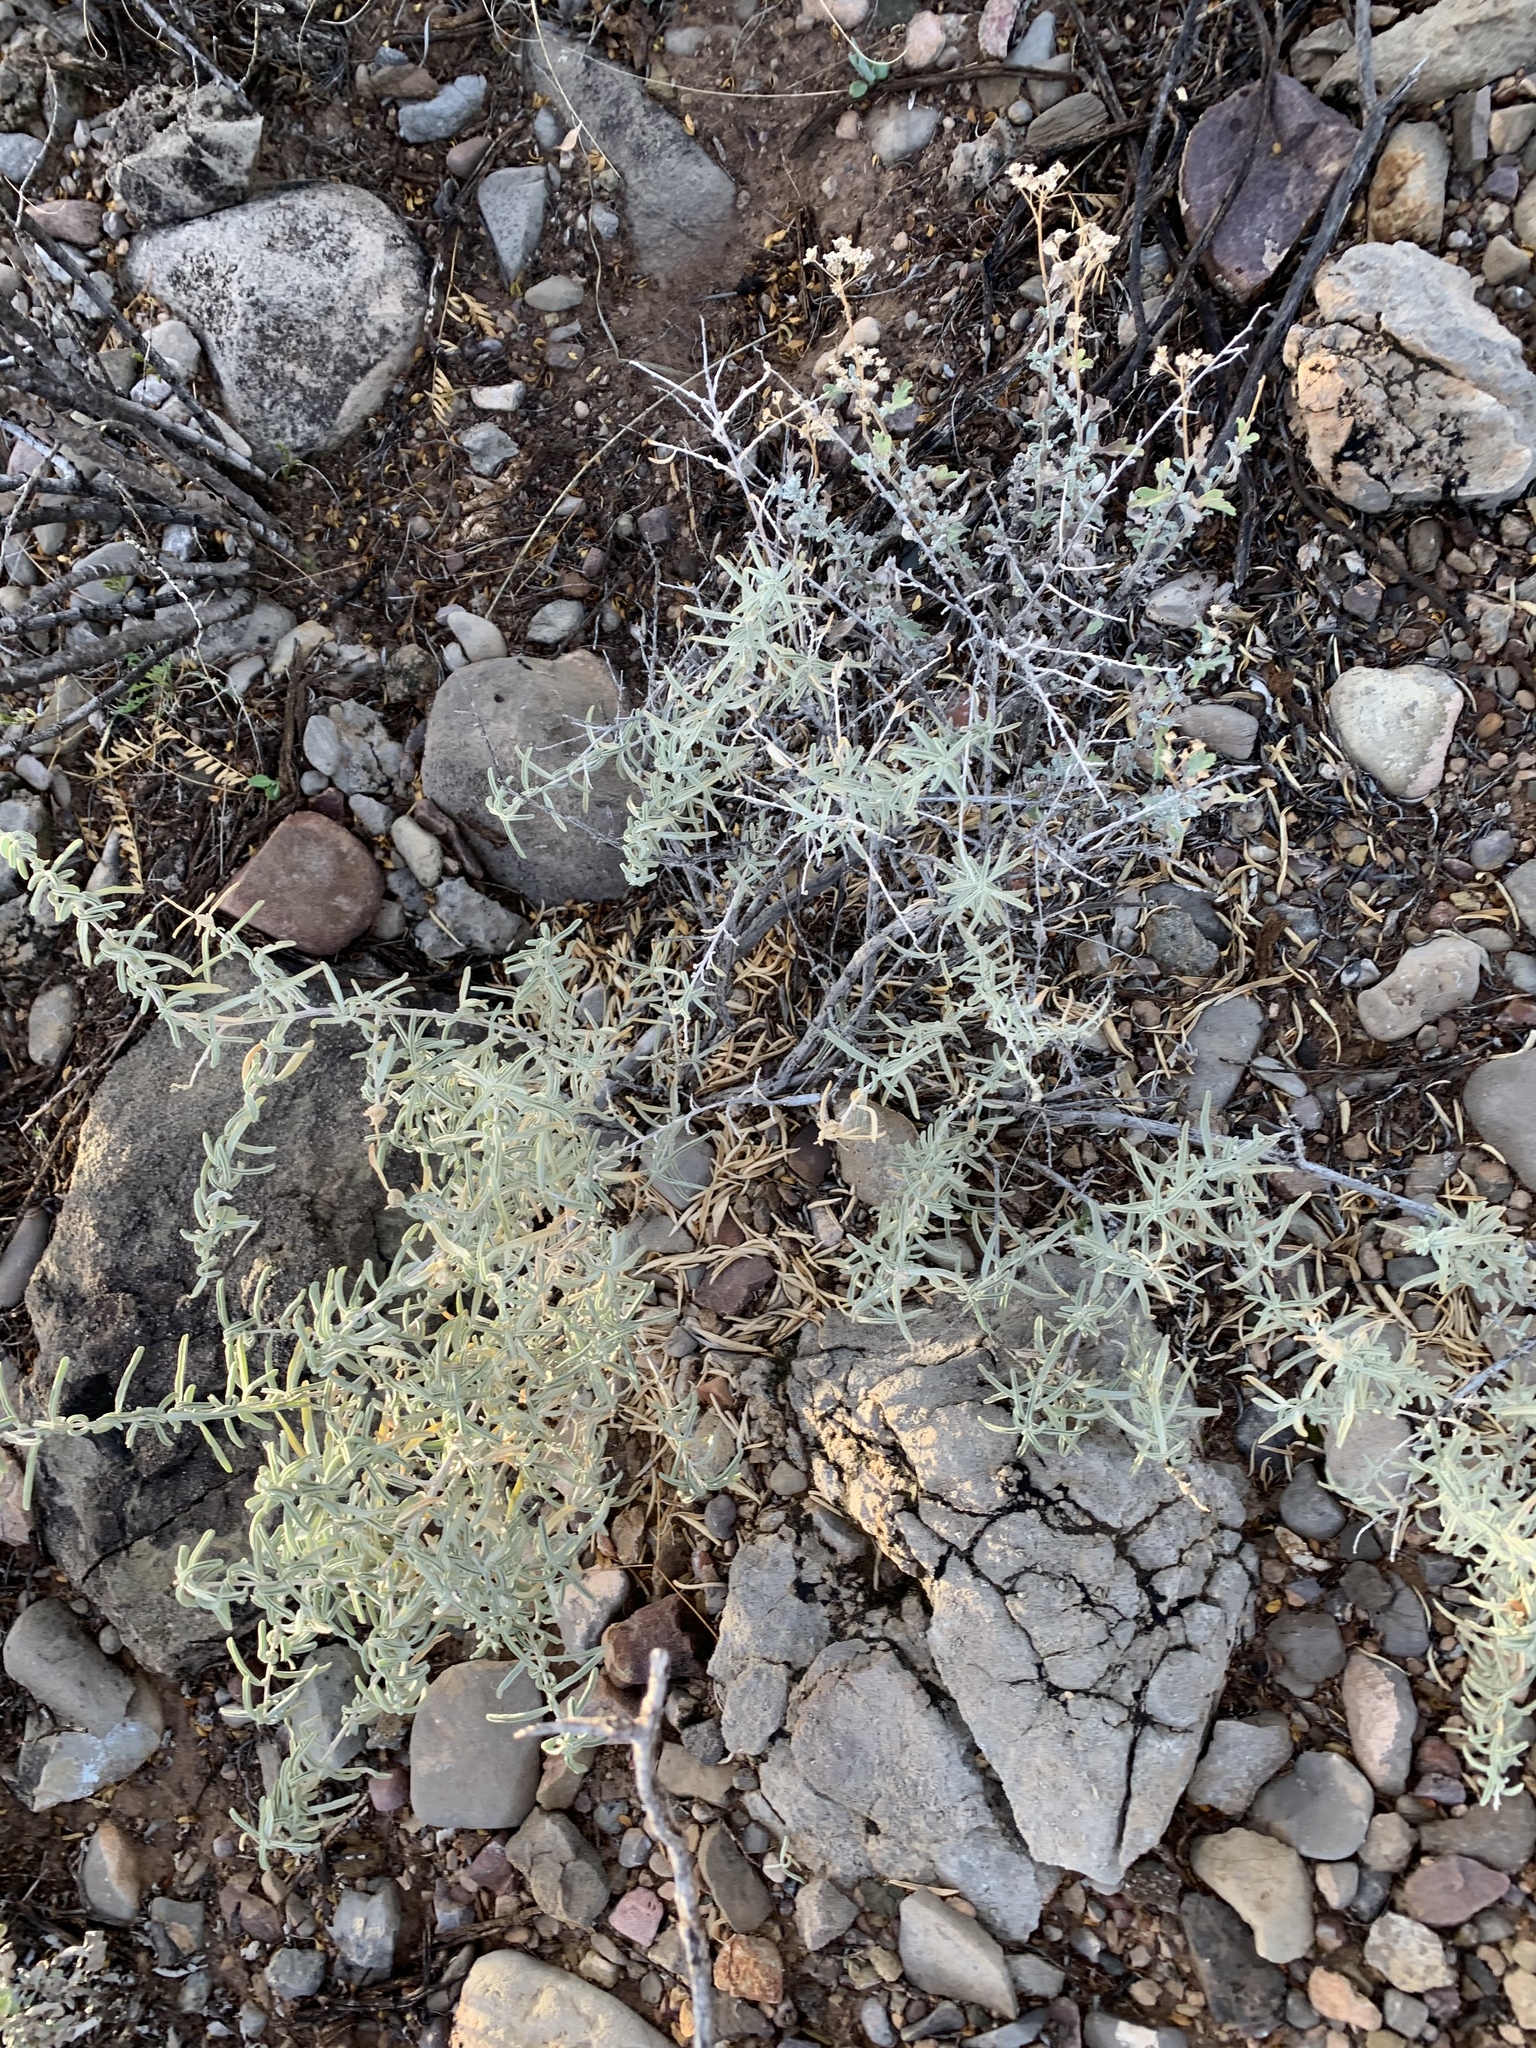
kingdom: Plantae
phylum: Tracheophyta
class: Magnoliopsida
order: Caryophyllales
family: Amaranthaceae
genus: Atriplex
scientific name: Atriplex canescens
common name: Four-wing saltbush
